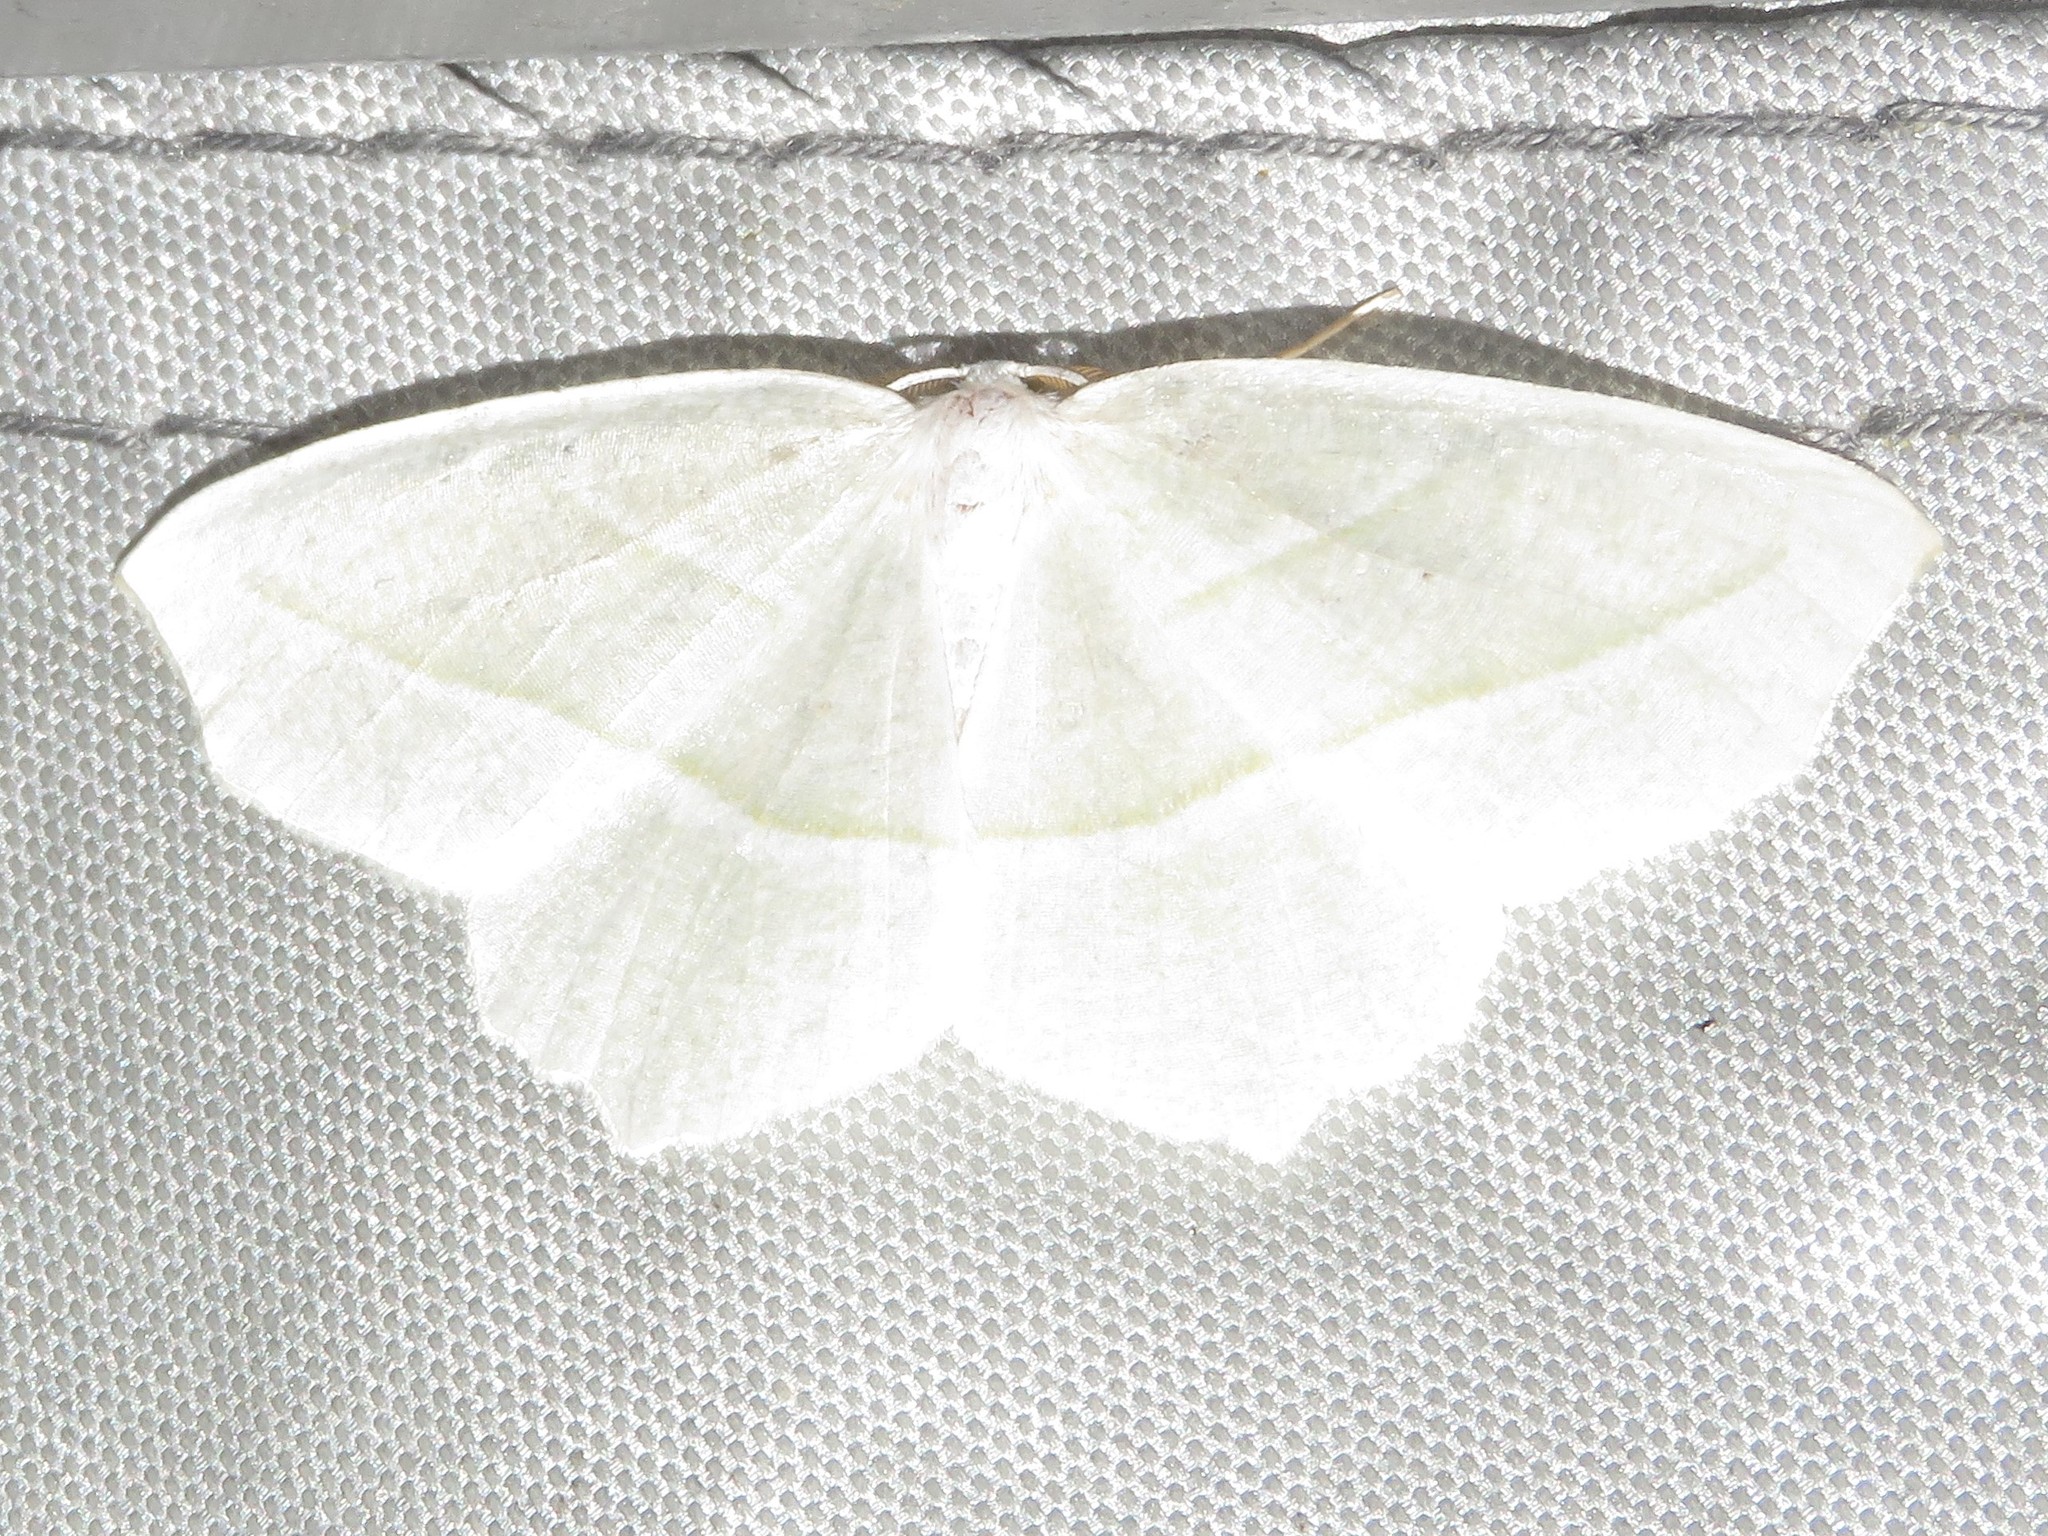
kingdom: Animalia
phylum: Arthropoda
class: Insecta
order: Lepidoptera
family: Geometridae
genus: Campaea
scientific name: Campaea perlata
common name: Fringed looper
